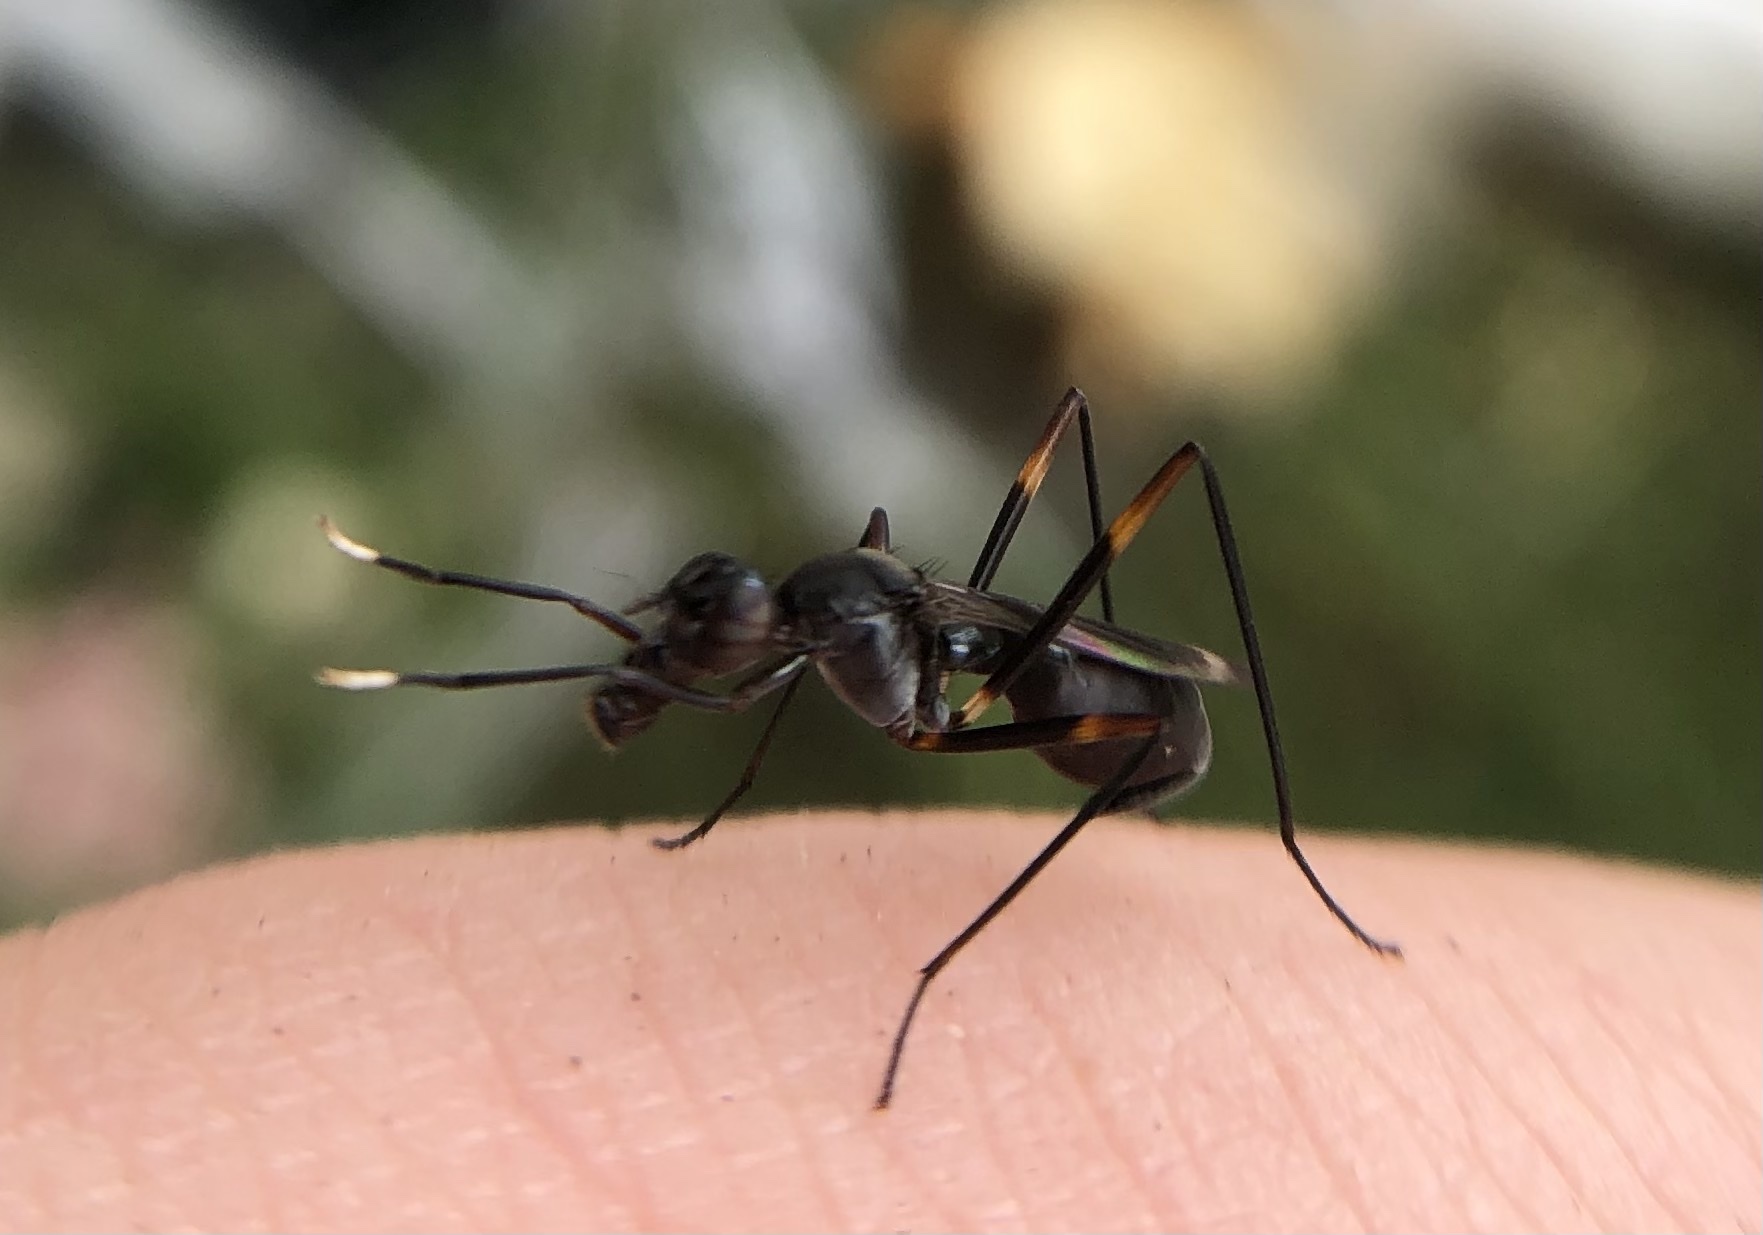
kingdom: Animalia
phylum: Arthropoda
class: Insecta
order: Diptera
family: Micropezidae
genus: Taeniaptera
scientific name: Taeniaptera trivittata
